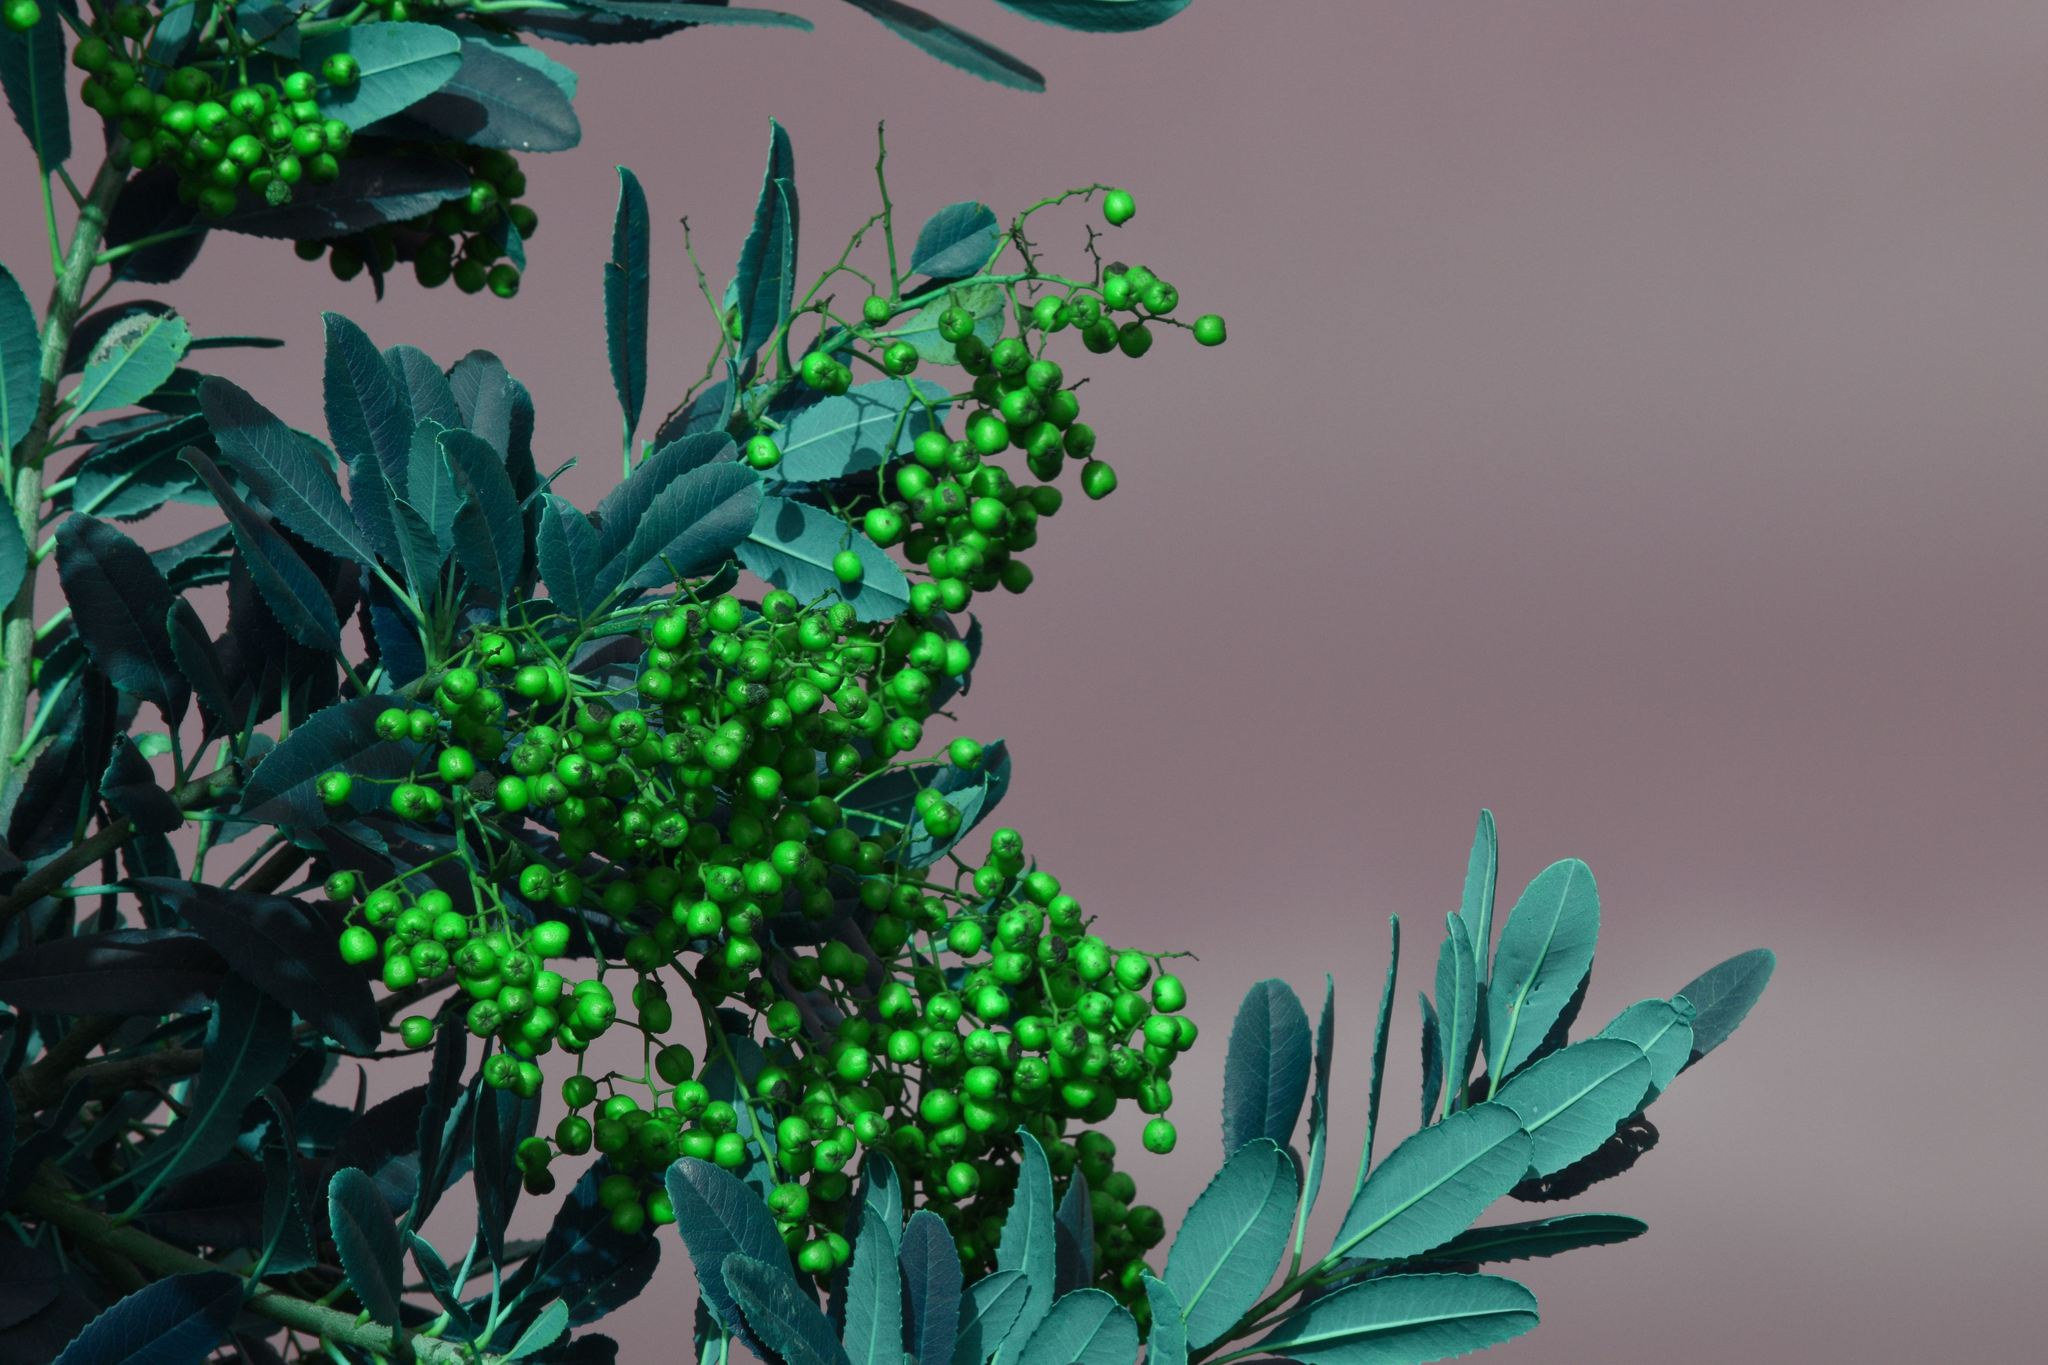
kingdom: Plantae
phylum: Tracheophyta
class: Magnoliopsida
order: Rosales
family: Rosaceae
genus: Heteromeles
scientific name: Heteromeles arbutifolia
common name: California-holly
